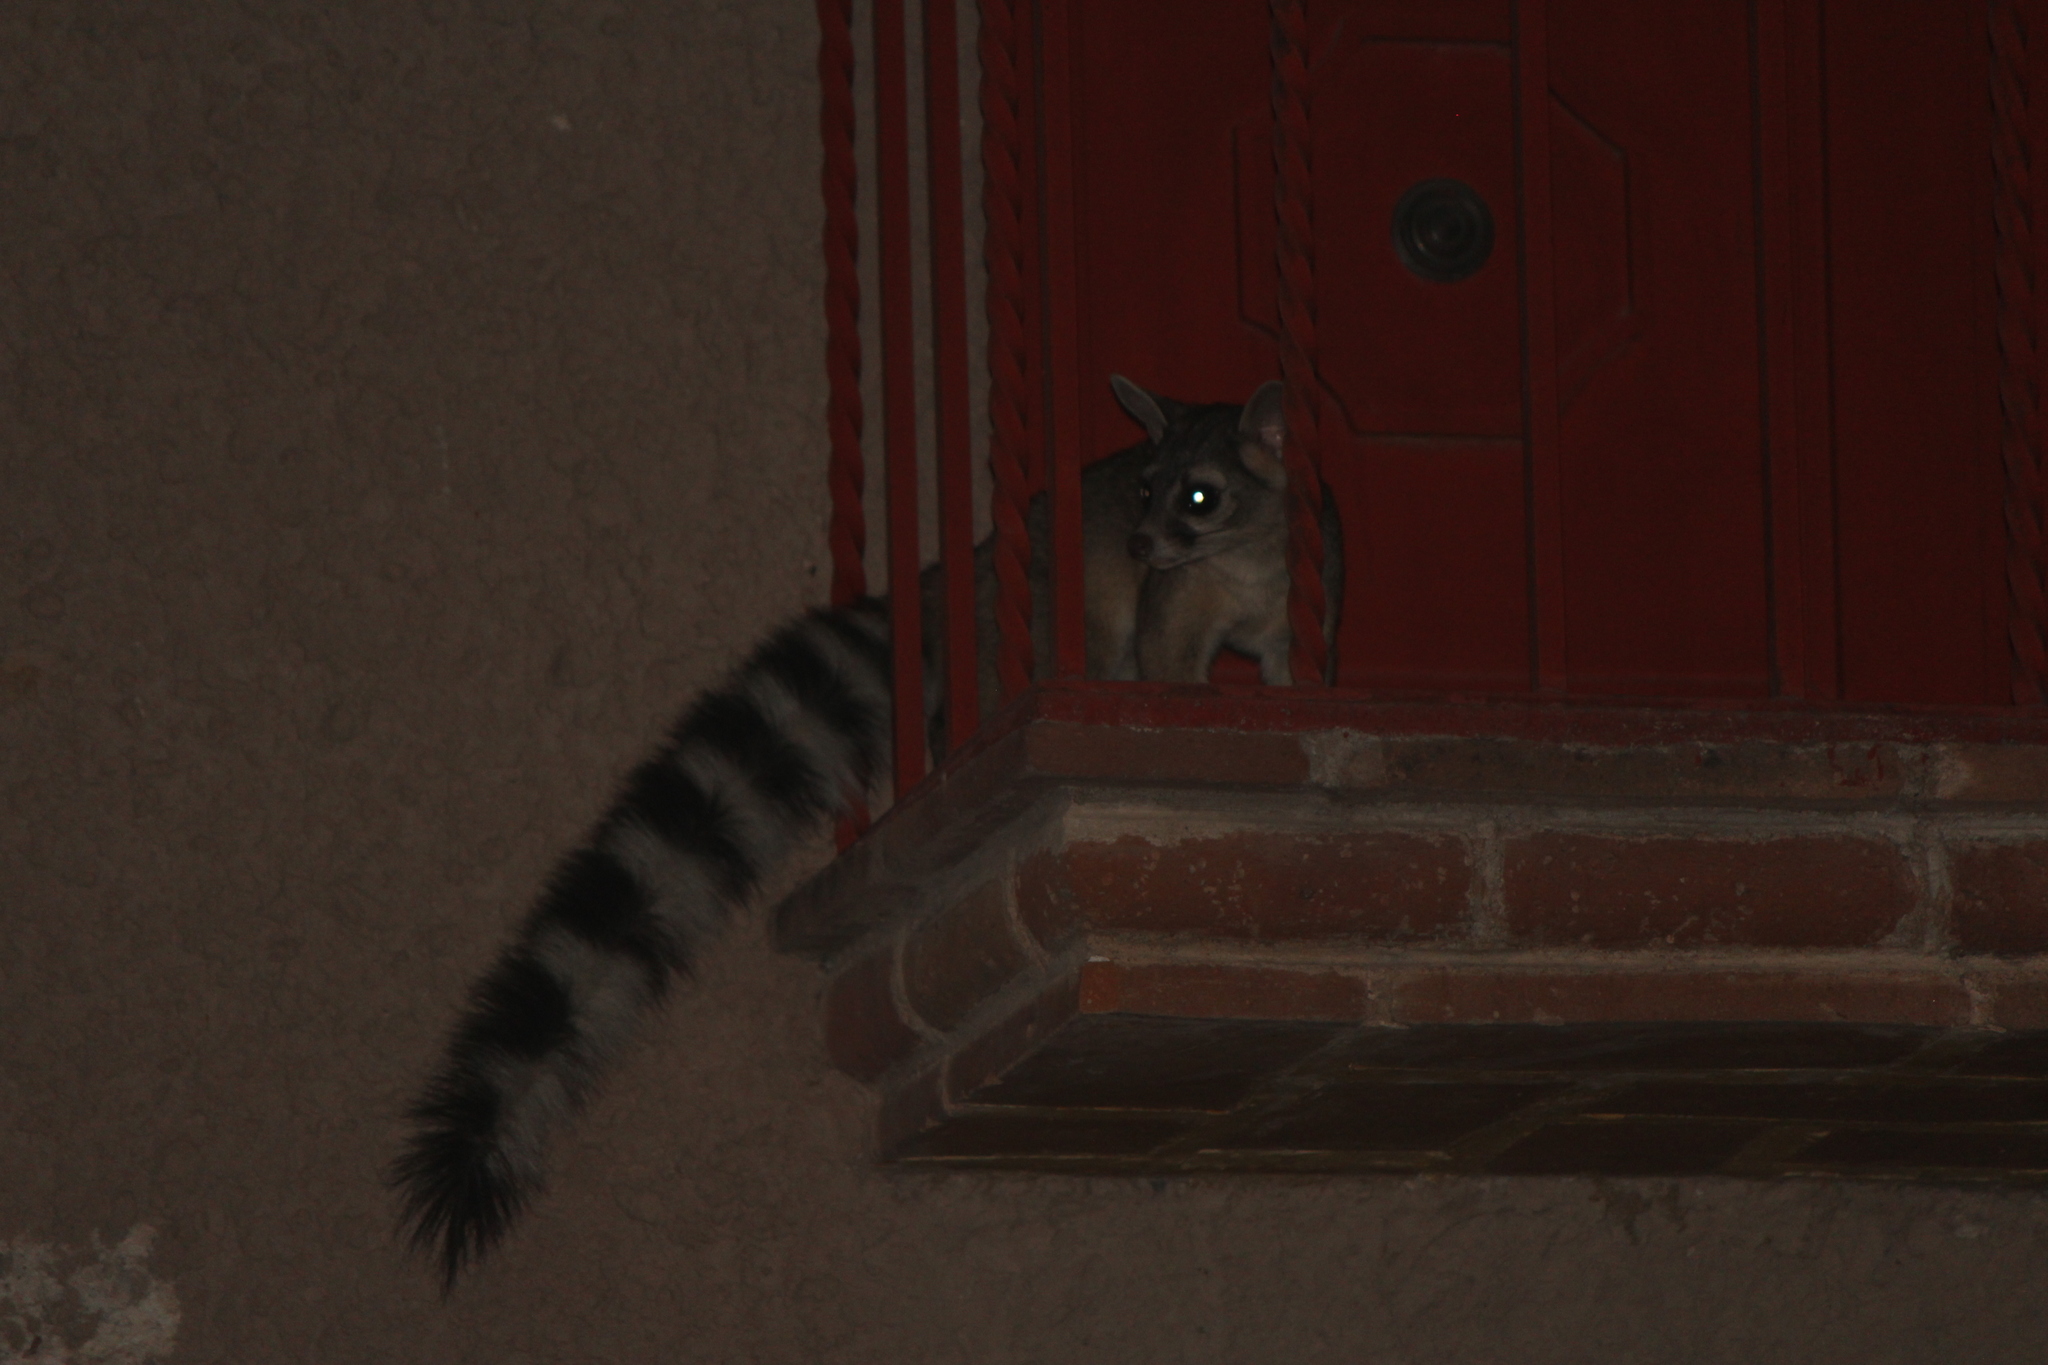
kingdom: Animalia
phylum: Chordata
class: Mammalia
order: Carnivora
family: Procyonidae
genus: Bassariscus
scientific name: Bassariscus astutus
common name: Ringtail
